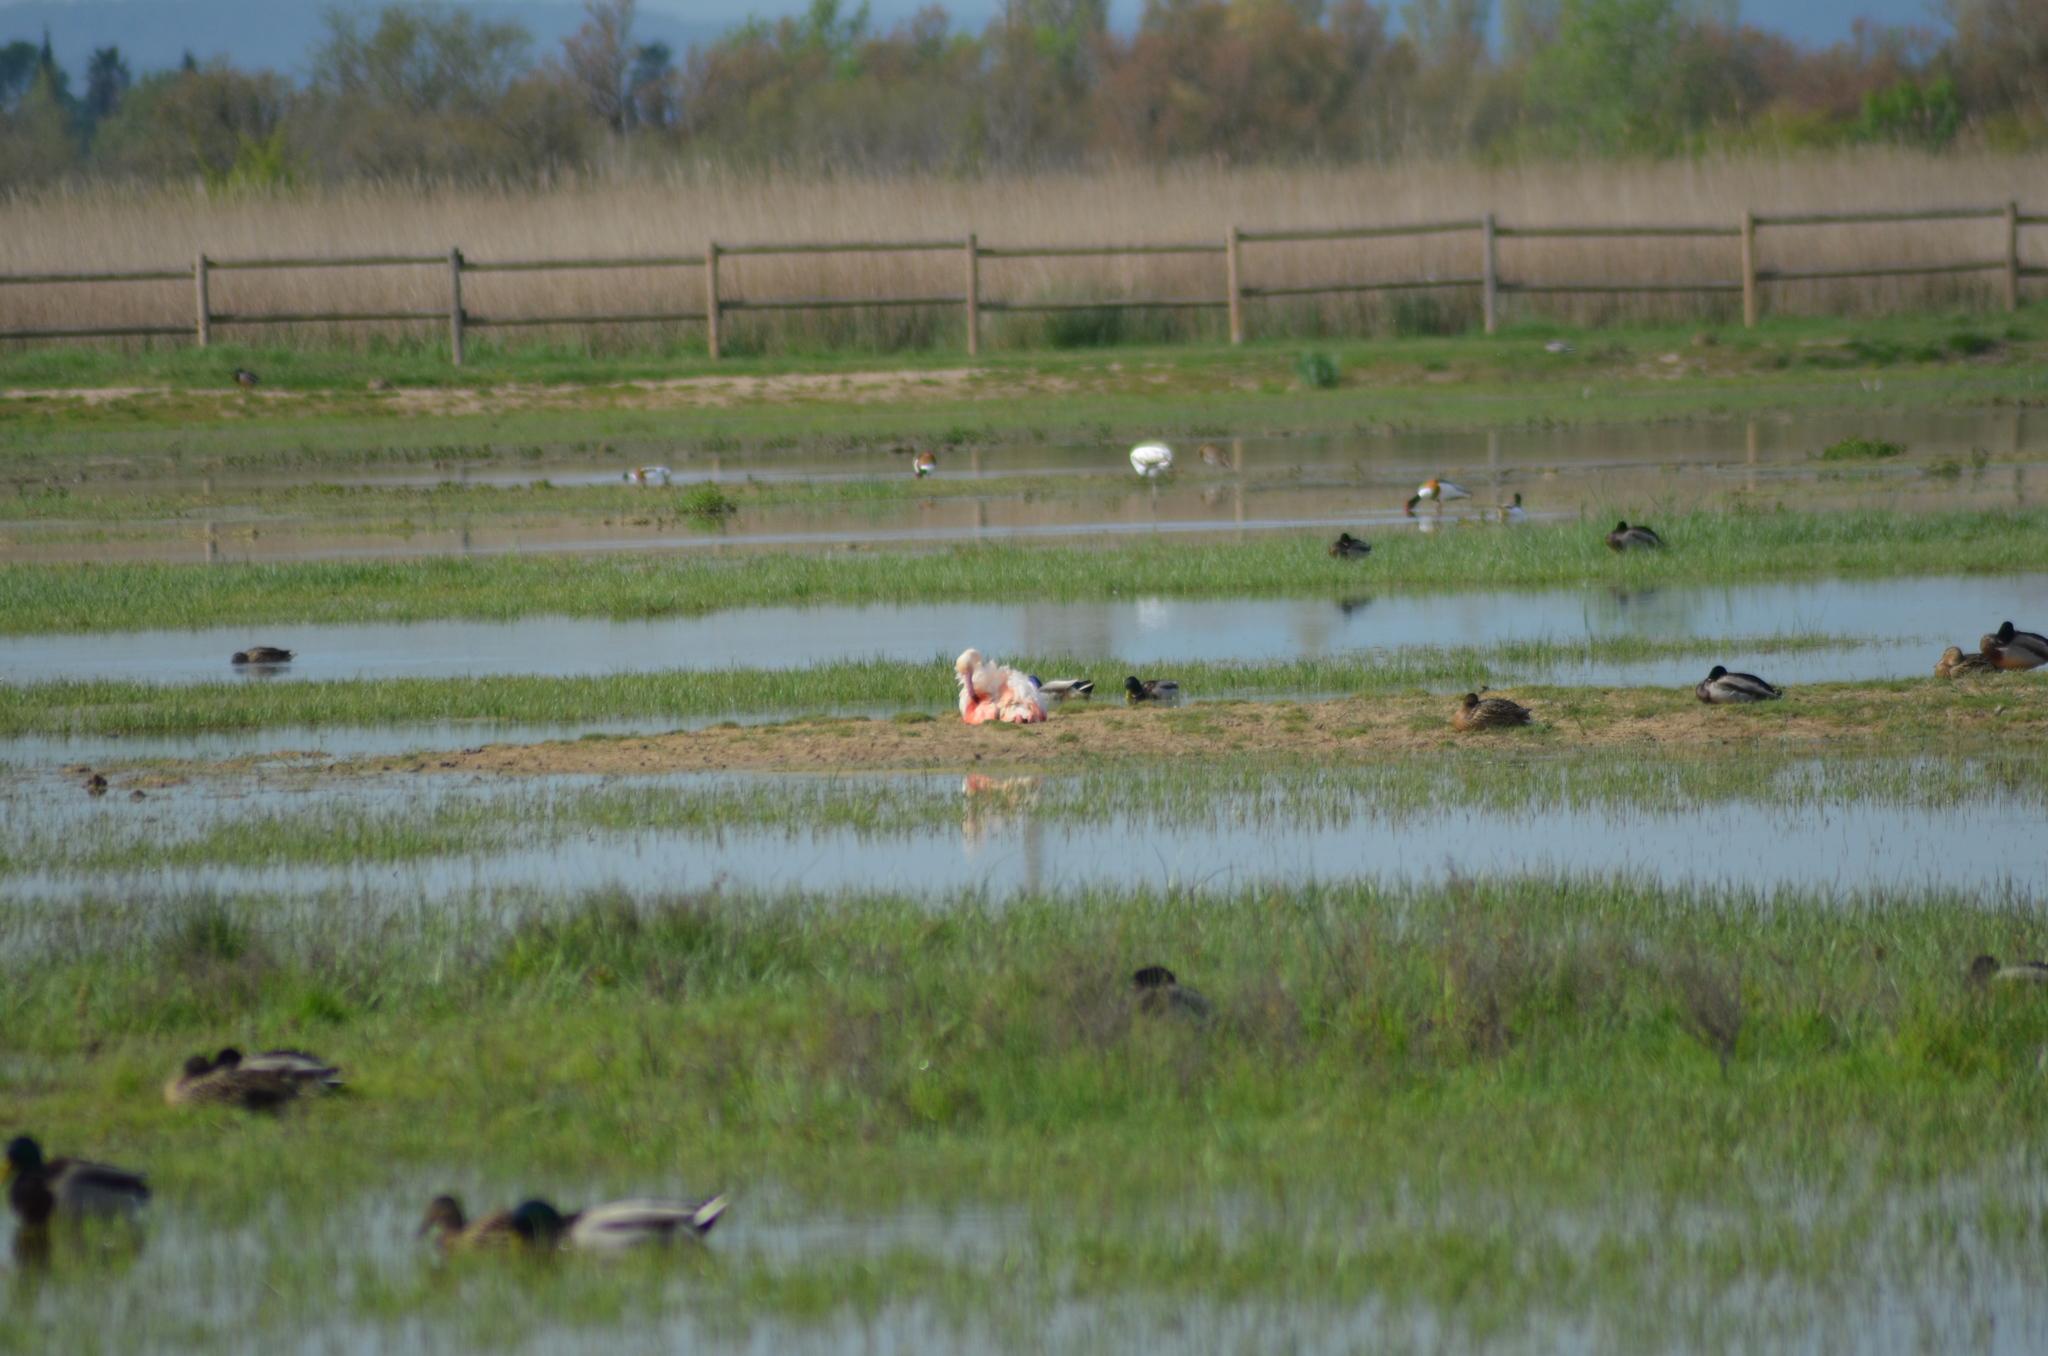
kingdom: Animalia
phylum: Chordata
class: Aves
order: Phoenicopteriformes
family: Phoenicopteridae
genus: Phoenicopterus
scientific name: Phoenicopterus roseus
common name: Greater flamingo
